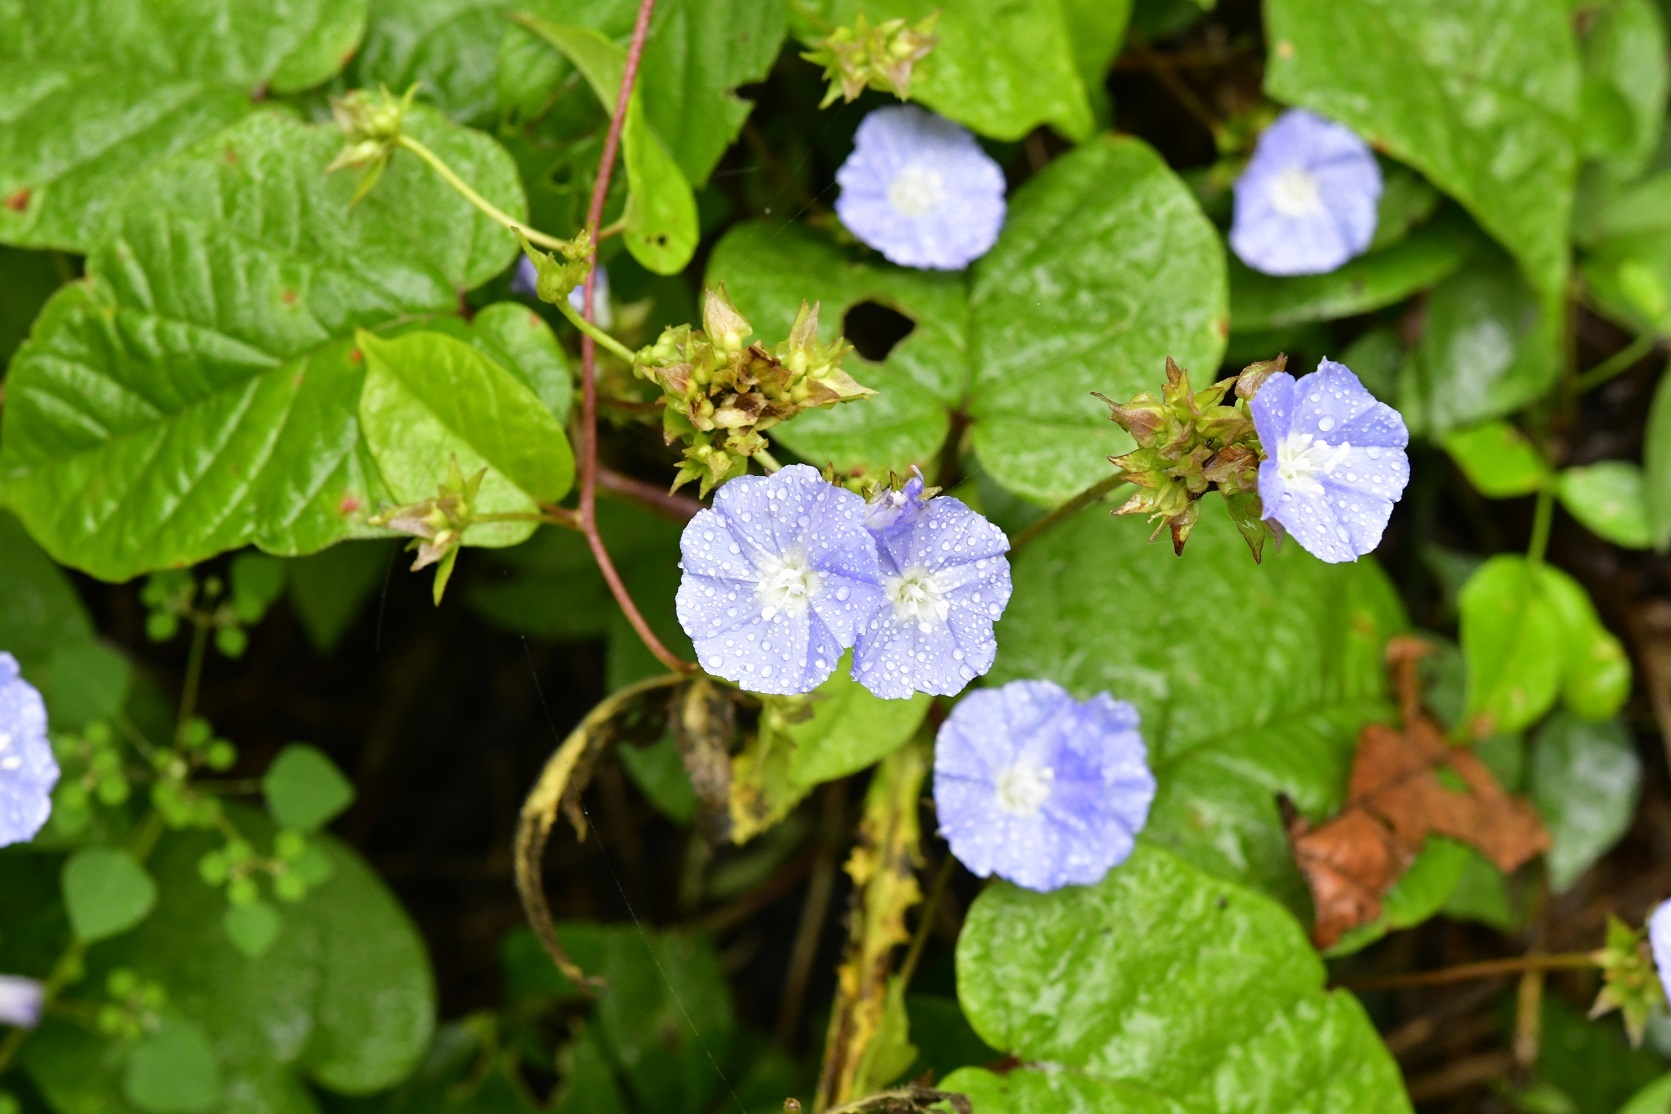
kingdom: Plantae
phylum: Tracheophyta
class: Magnoliopsida
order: Solanales
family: Convolvulaceae
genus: Jacquemontia
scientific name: Jacquemontia pentanthos
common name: Skyblue clustervine
